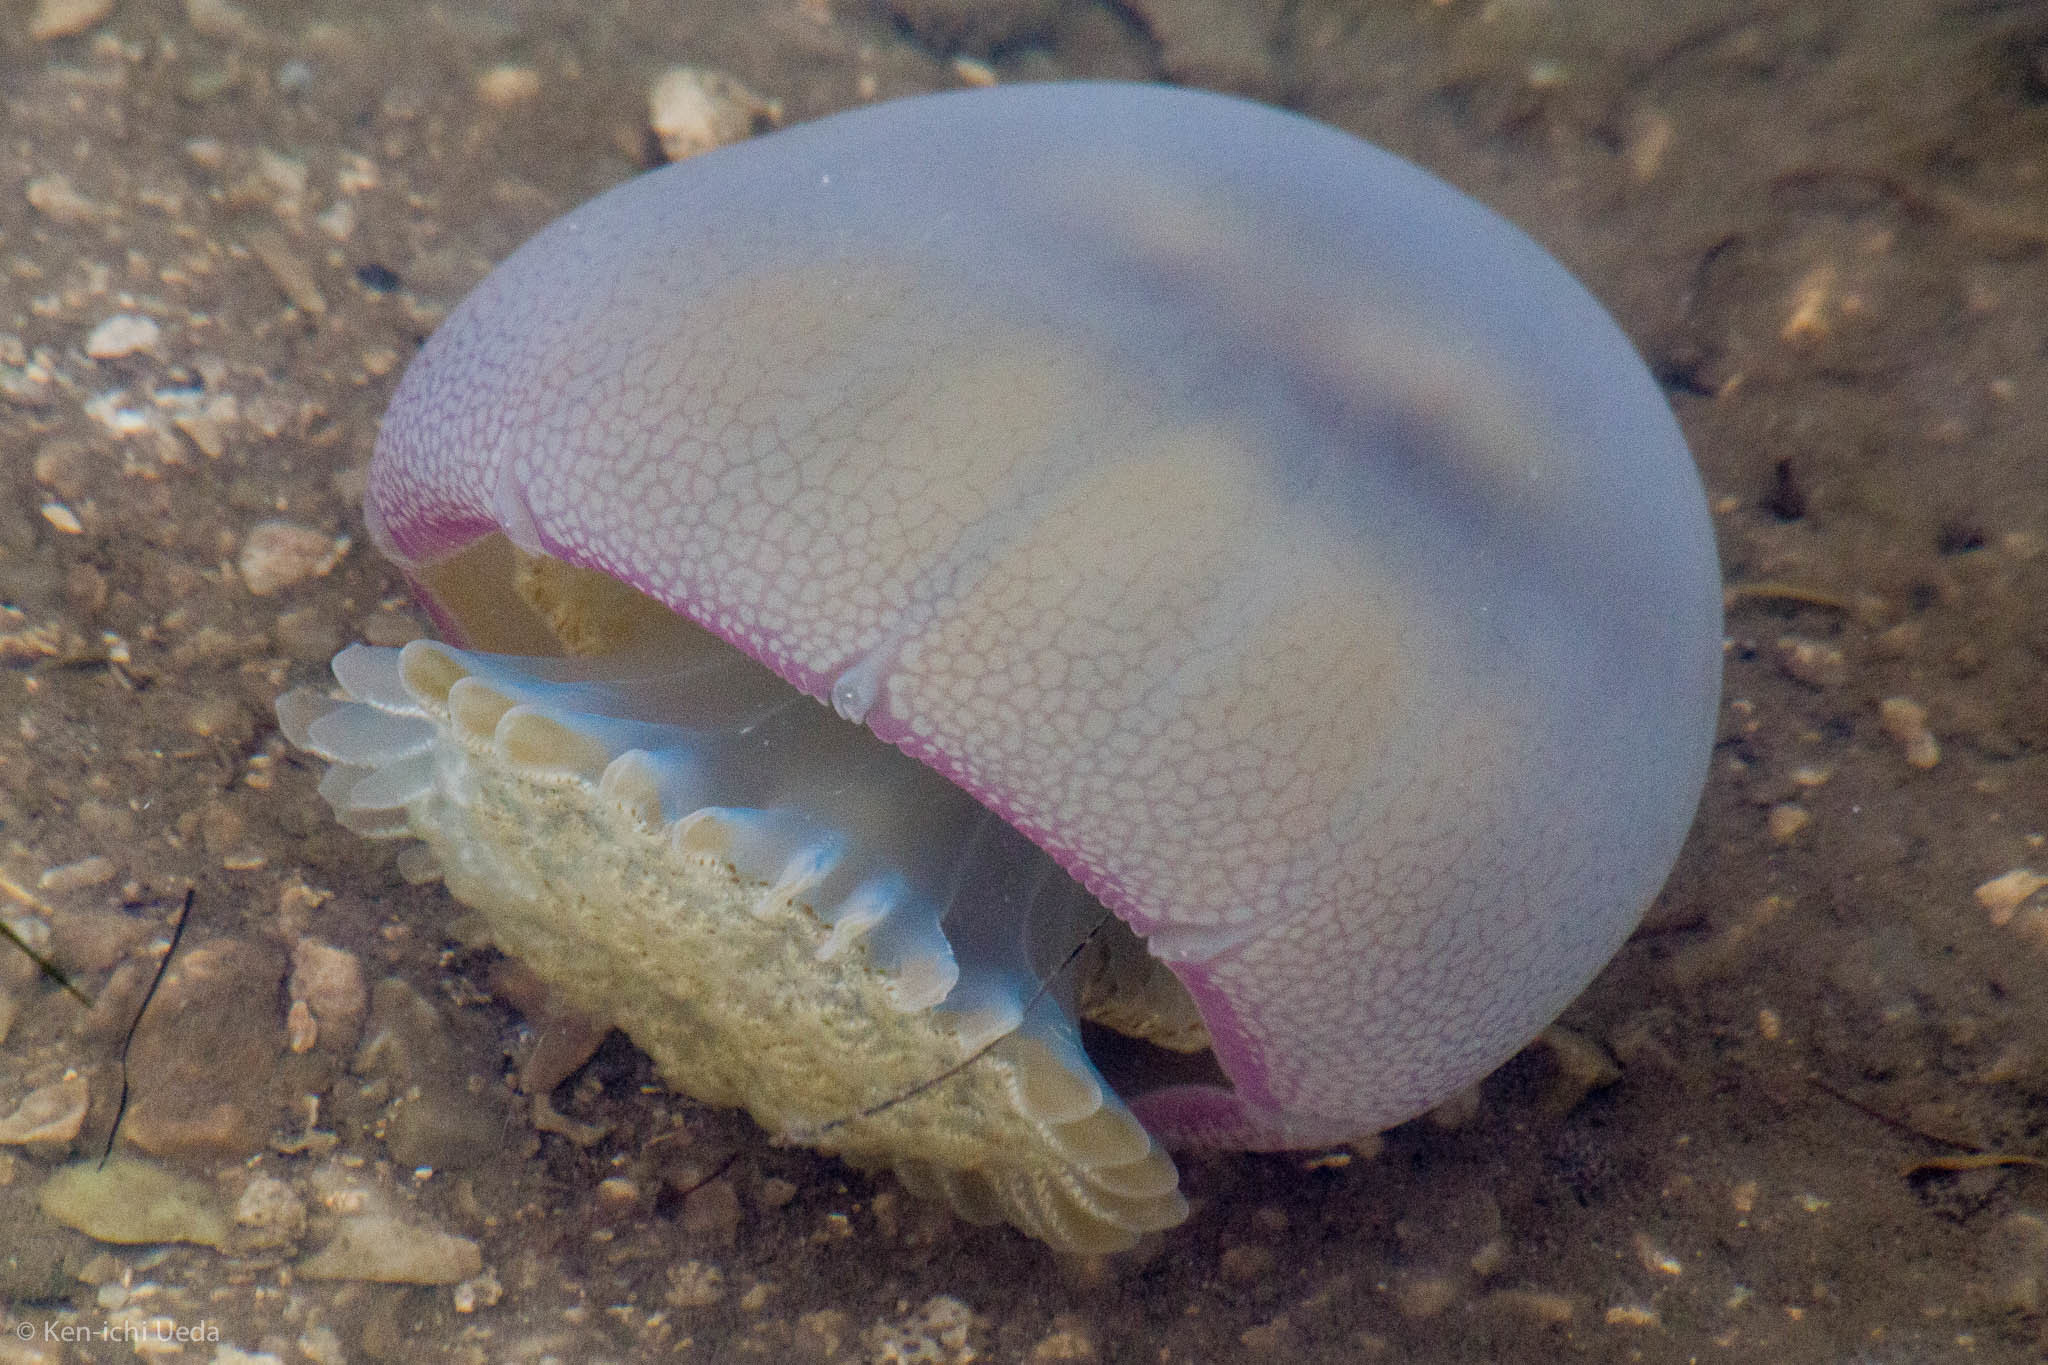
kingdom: Animalia
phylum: Cnidaria
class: Scyphozoa
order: Rhizostomeae
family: Stomolophidae
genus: Stomolophus
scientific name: Stomolophus meleagris
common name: Cabbagehead
